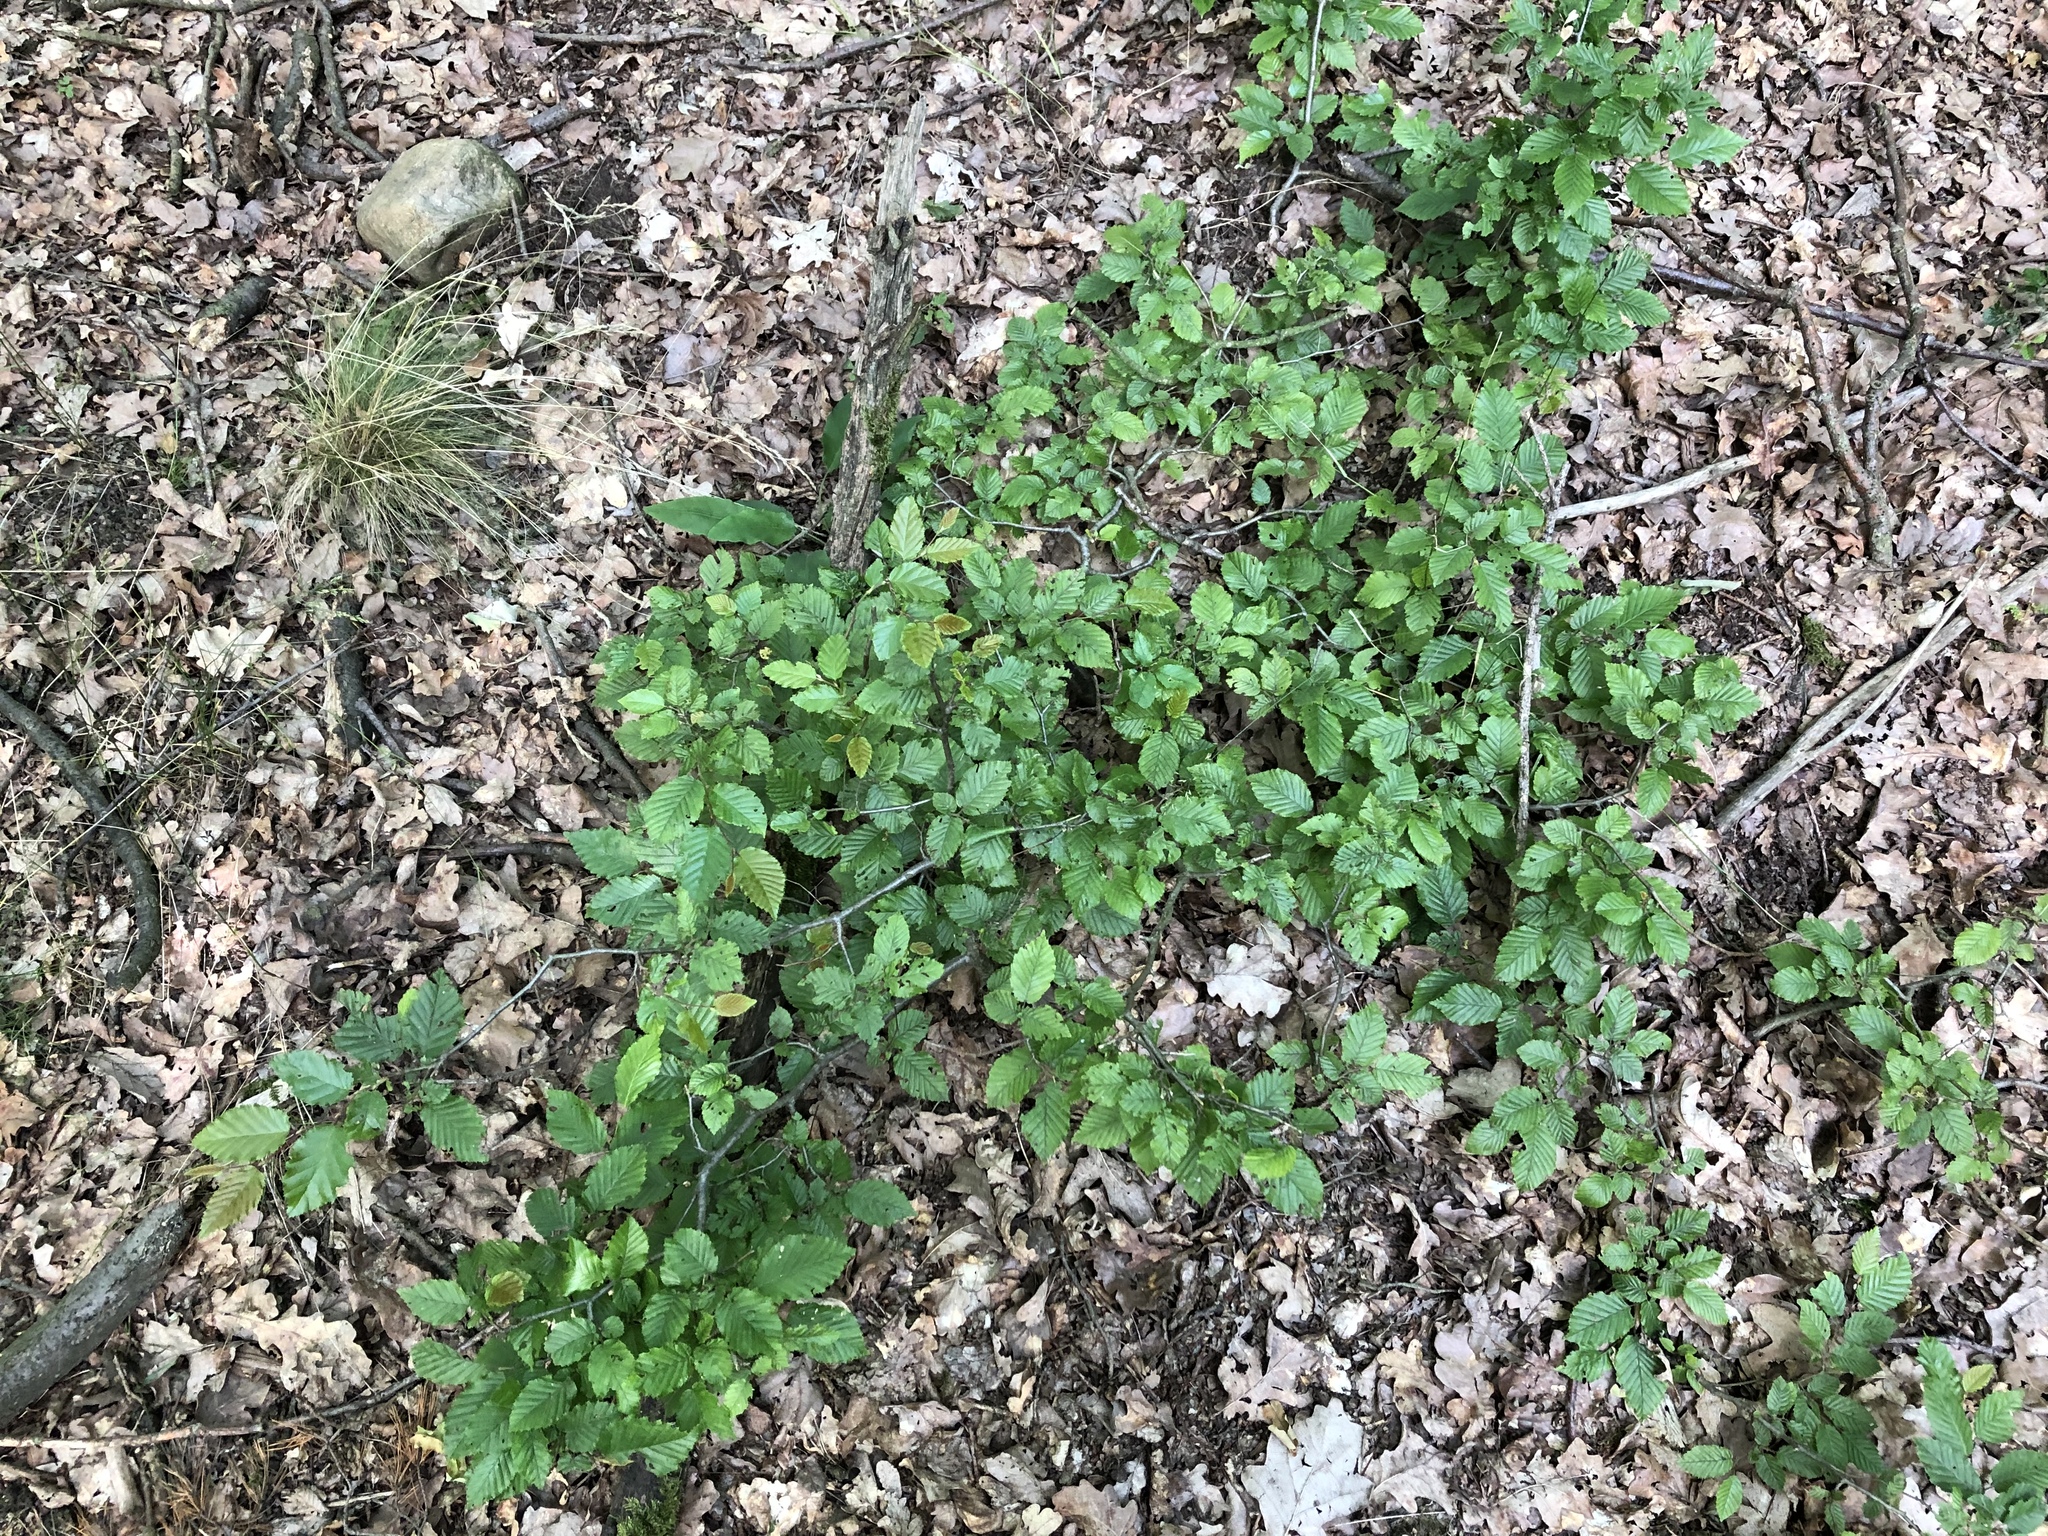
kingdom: Plantae
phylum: Tracheophyta
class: Magnoliopsida
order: Fagales
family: Betulaceae
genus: Carpinus
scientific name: Carpinus betulus
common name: Hornbeam
